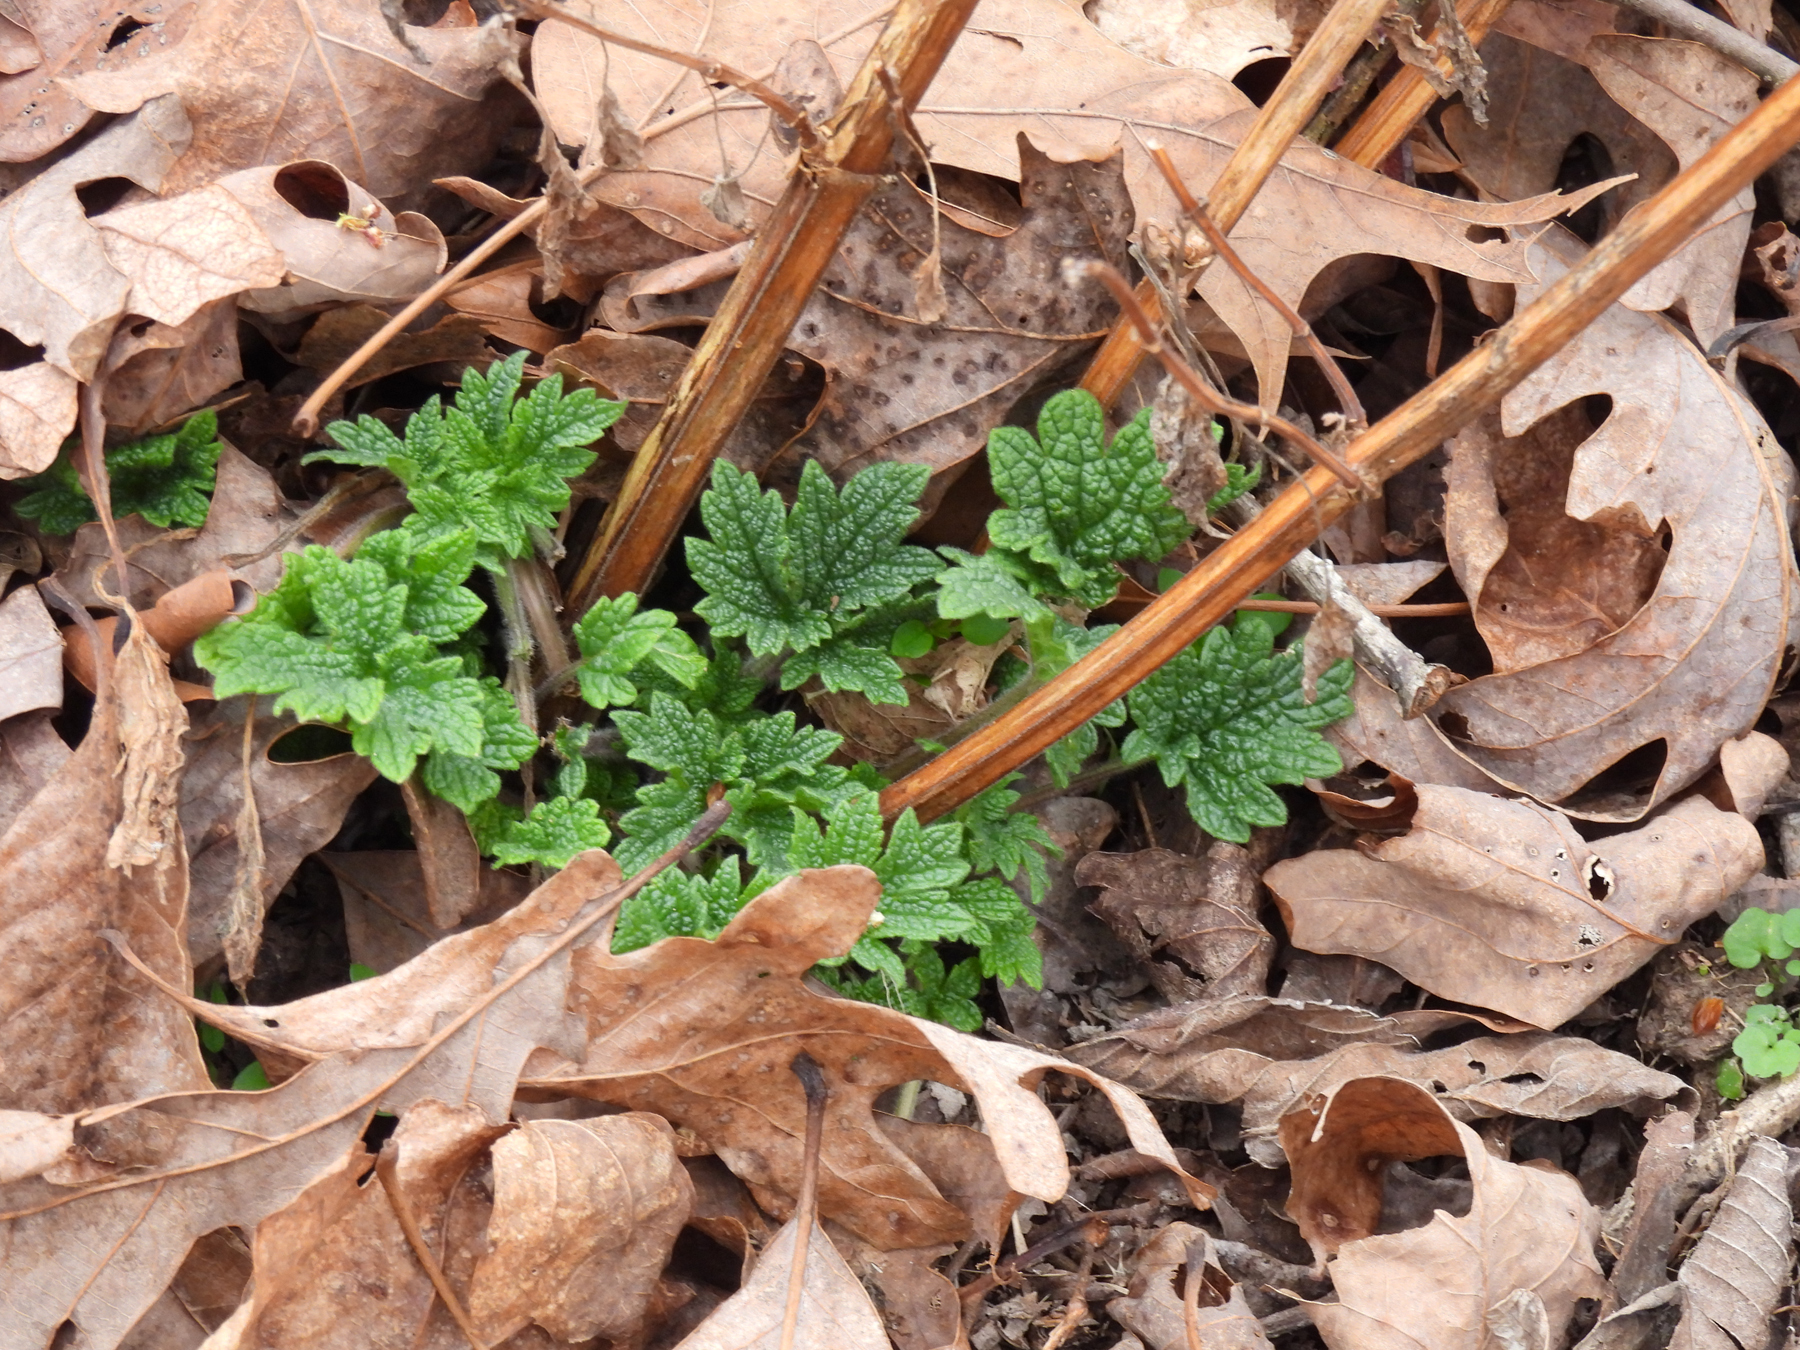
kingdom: Plantae
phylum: Tracheophyta
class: Magnoliopsida
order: Lamiales
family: Lamiaceae
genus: Leonurus
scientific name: Leonurus cardiaca
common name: Motherwort
